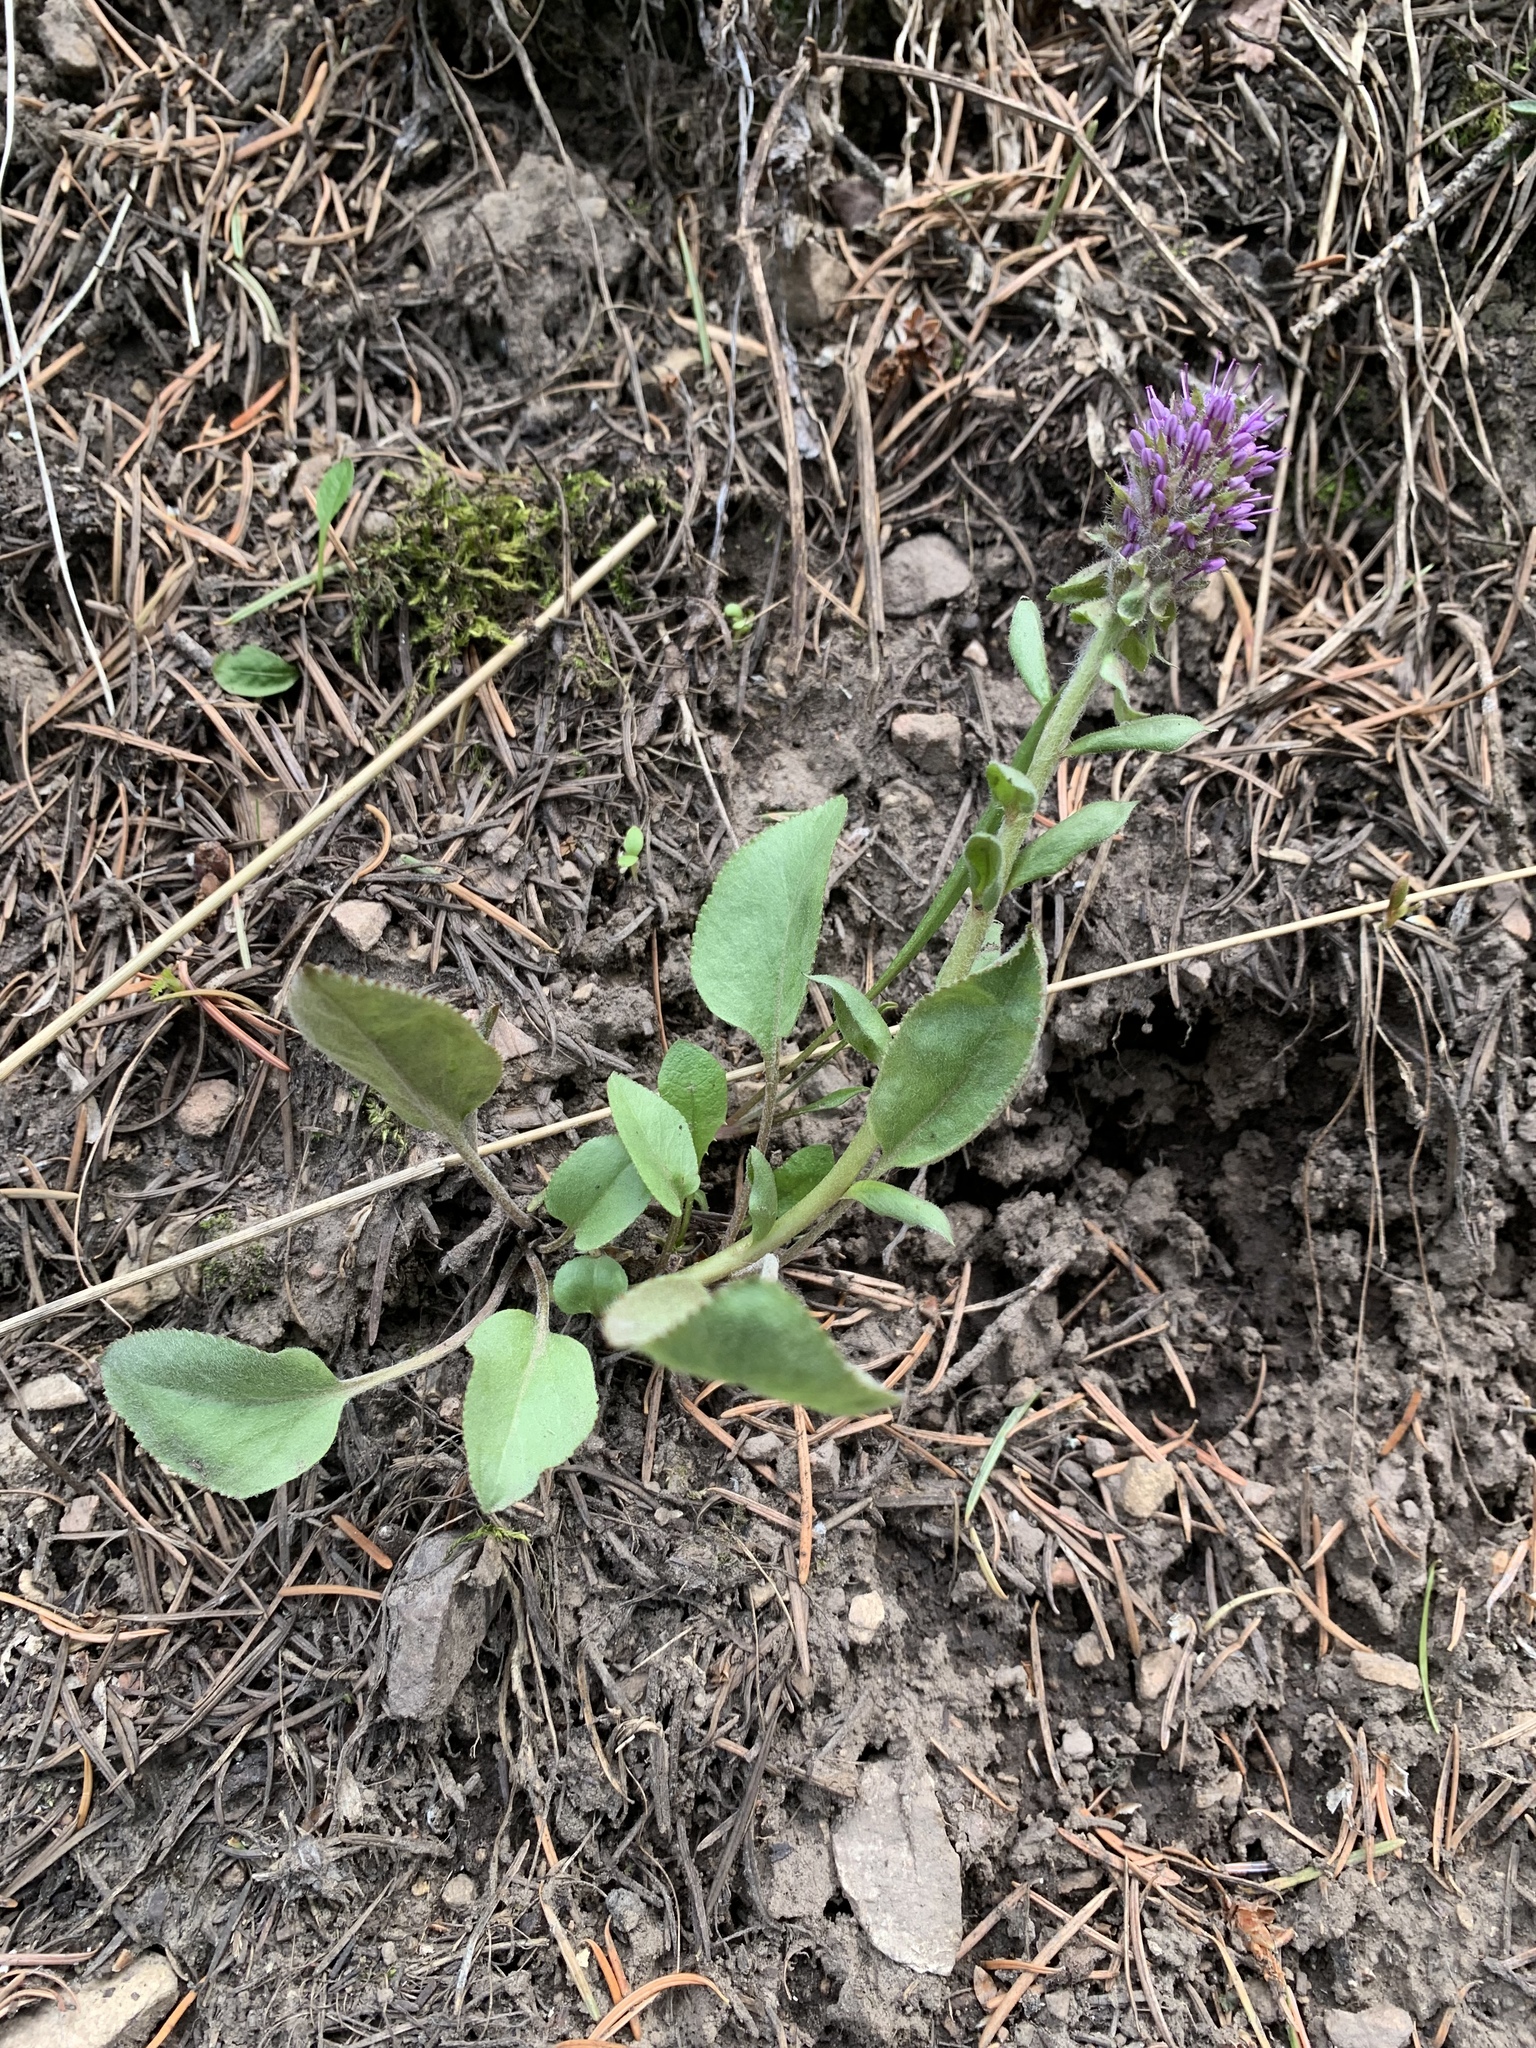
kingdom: Plantae
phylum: Tracheophyta
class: Magnoliopsida
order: Lamiales
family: Plantaginaceae
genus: Synthyris
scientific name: Synthyris wyomingensis
